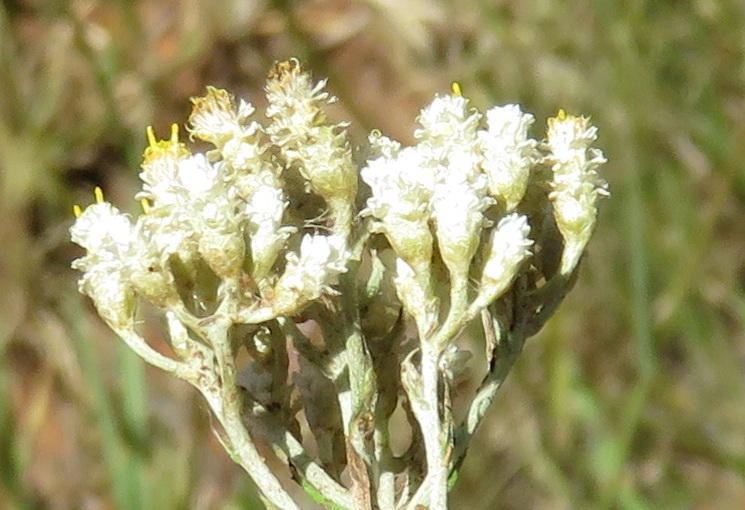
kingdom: Plantae
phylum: Tracheophyta
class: Magnoliopsida
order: Asterales
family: Asteraceae
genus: Helichrysum
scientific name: Helichrysum rugulosum
